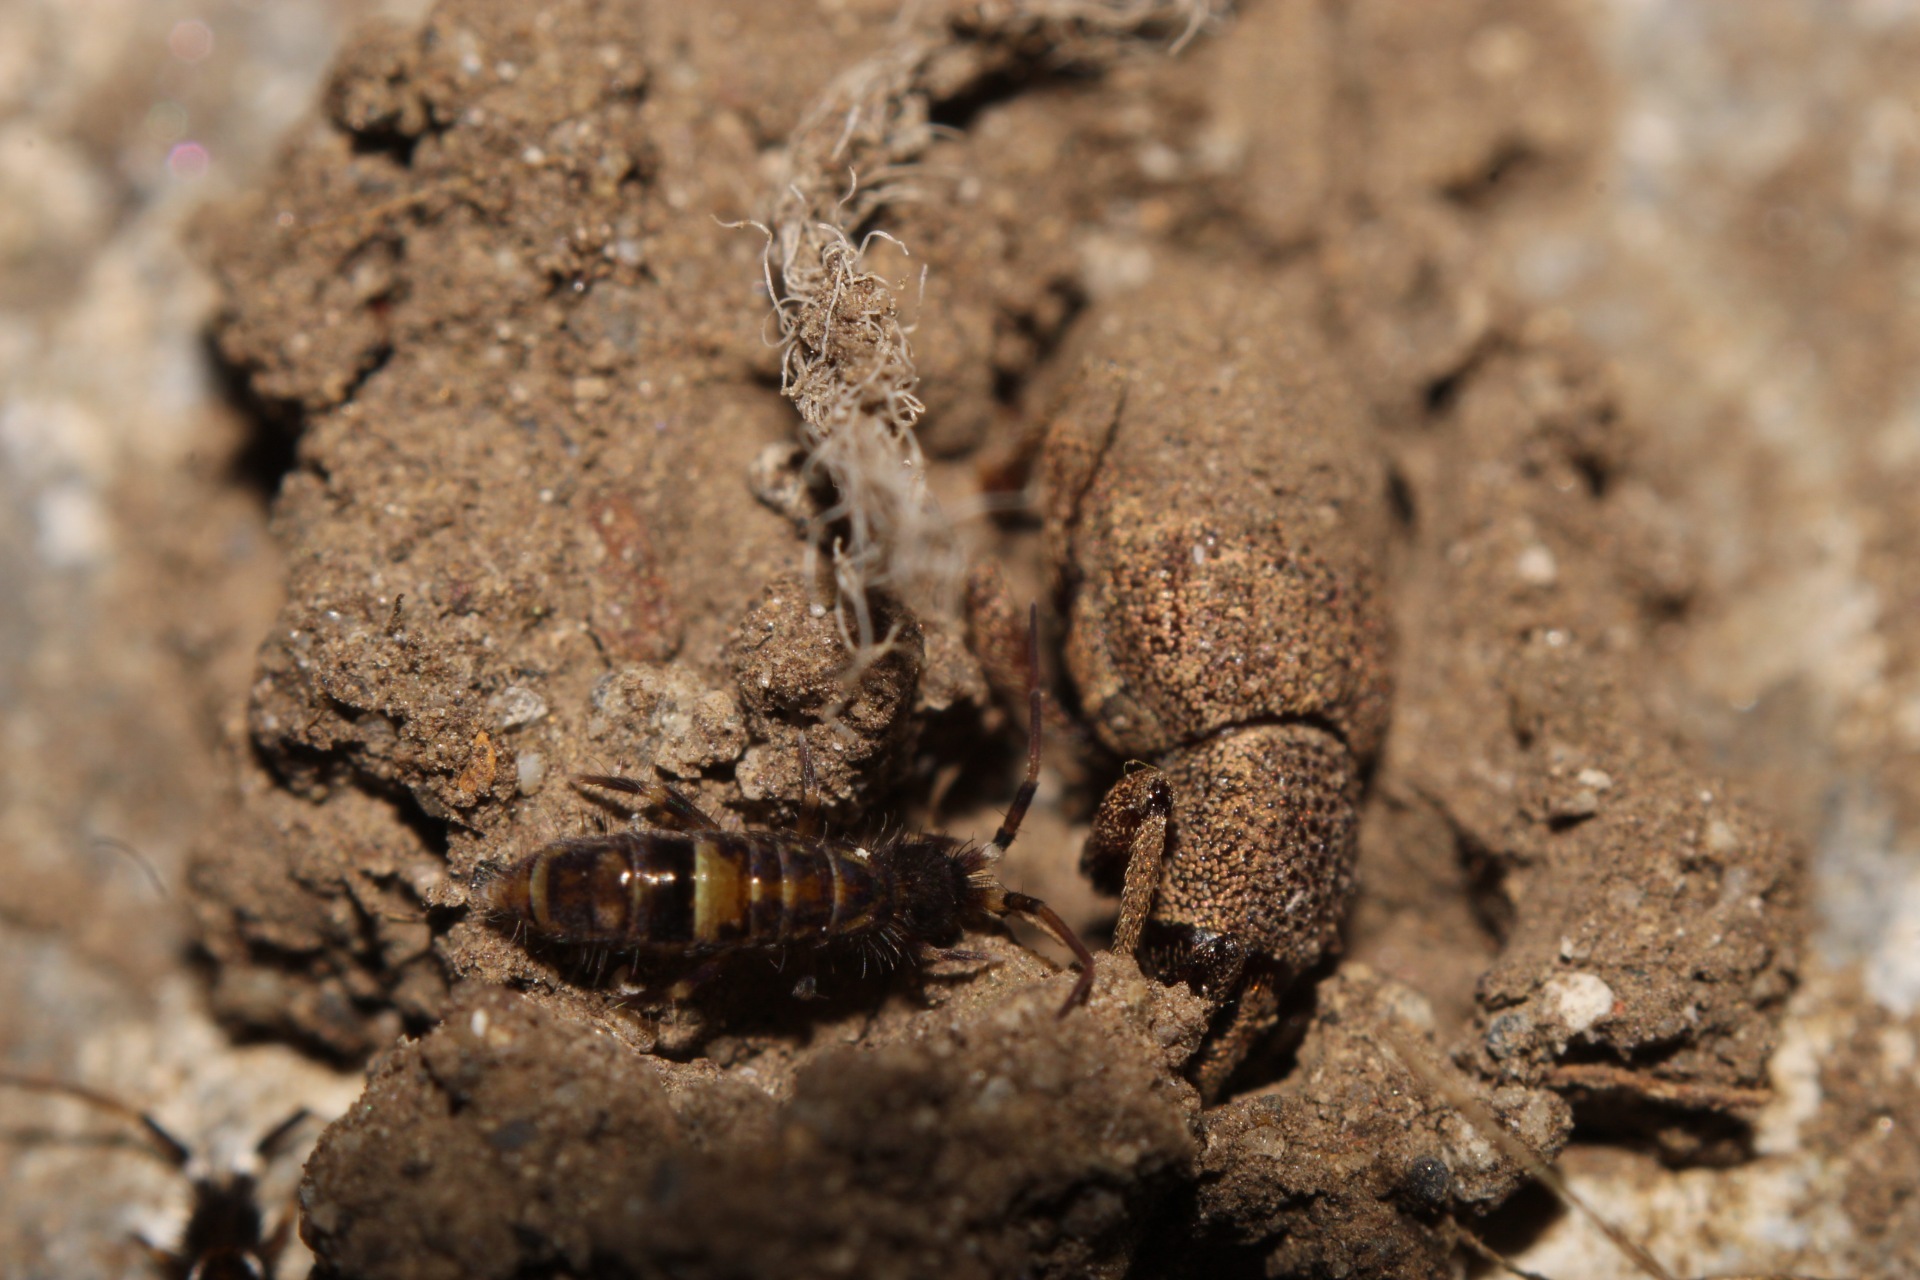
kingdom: Animalia
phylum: Arthropoda
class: Collembola
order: Entomobryomorpha
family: Orchesellidae
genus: Orchesella
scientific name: Orchesella cincta
